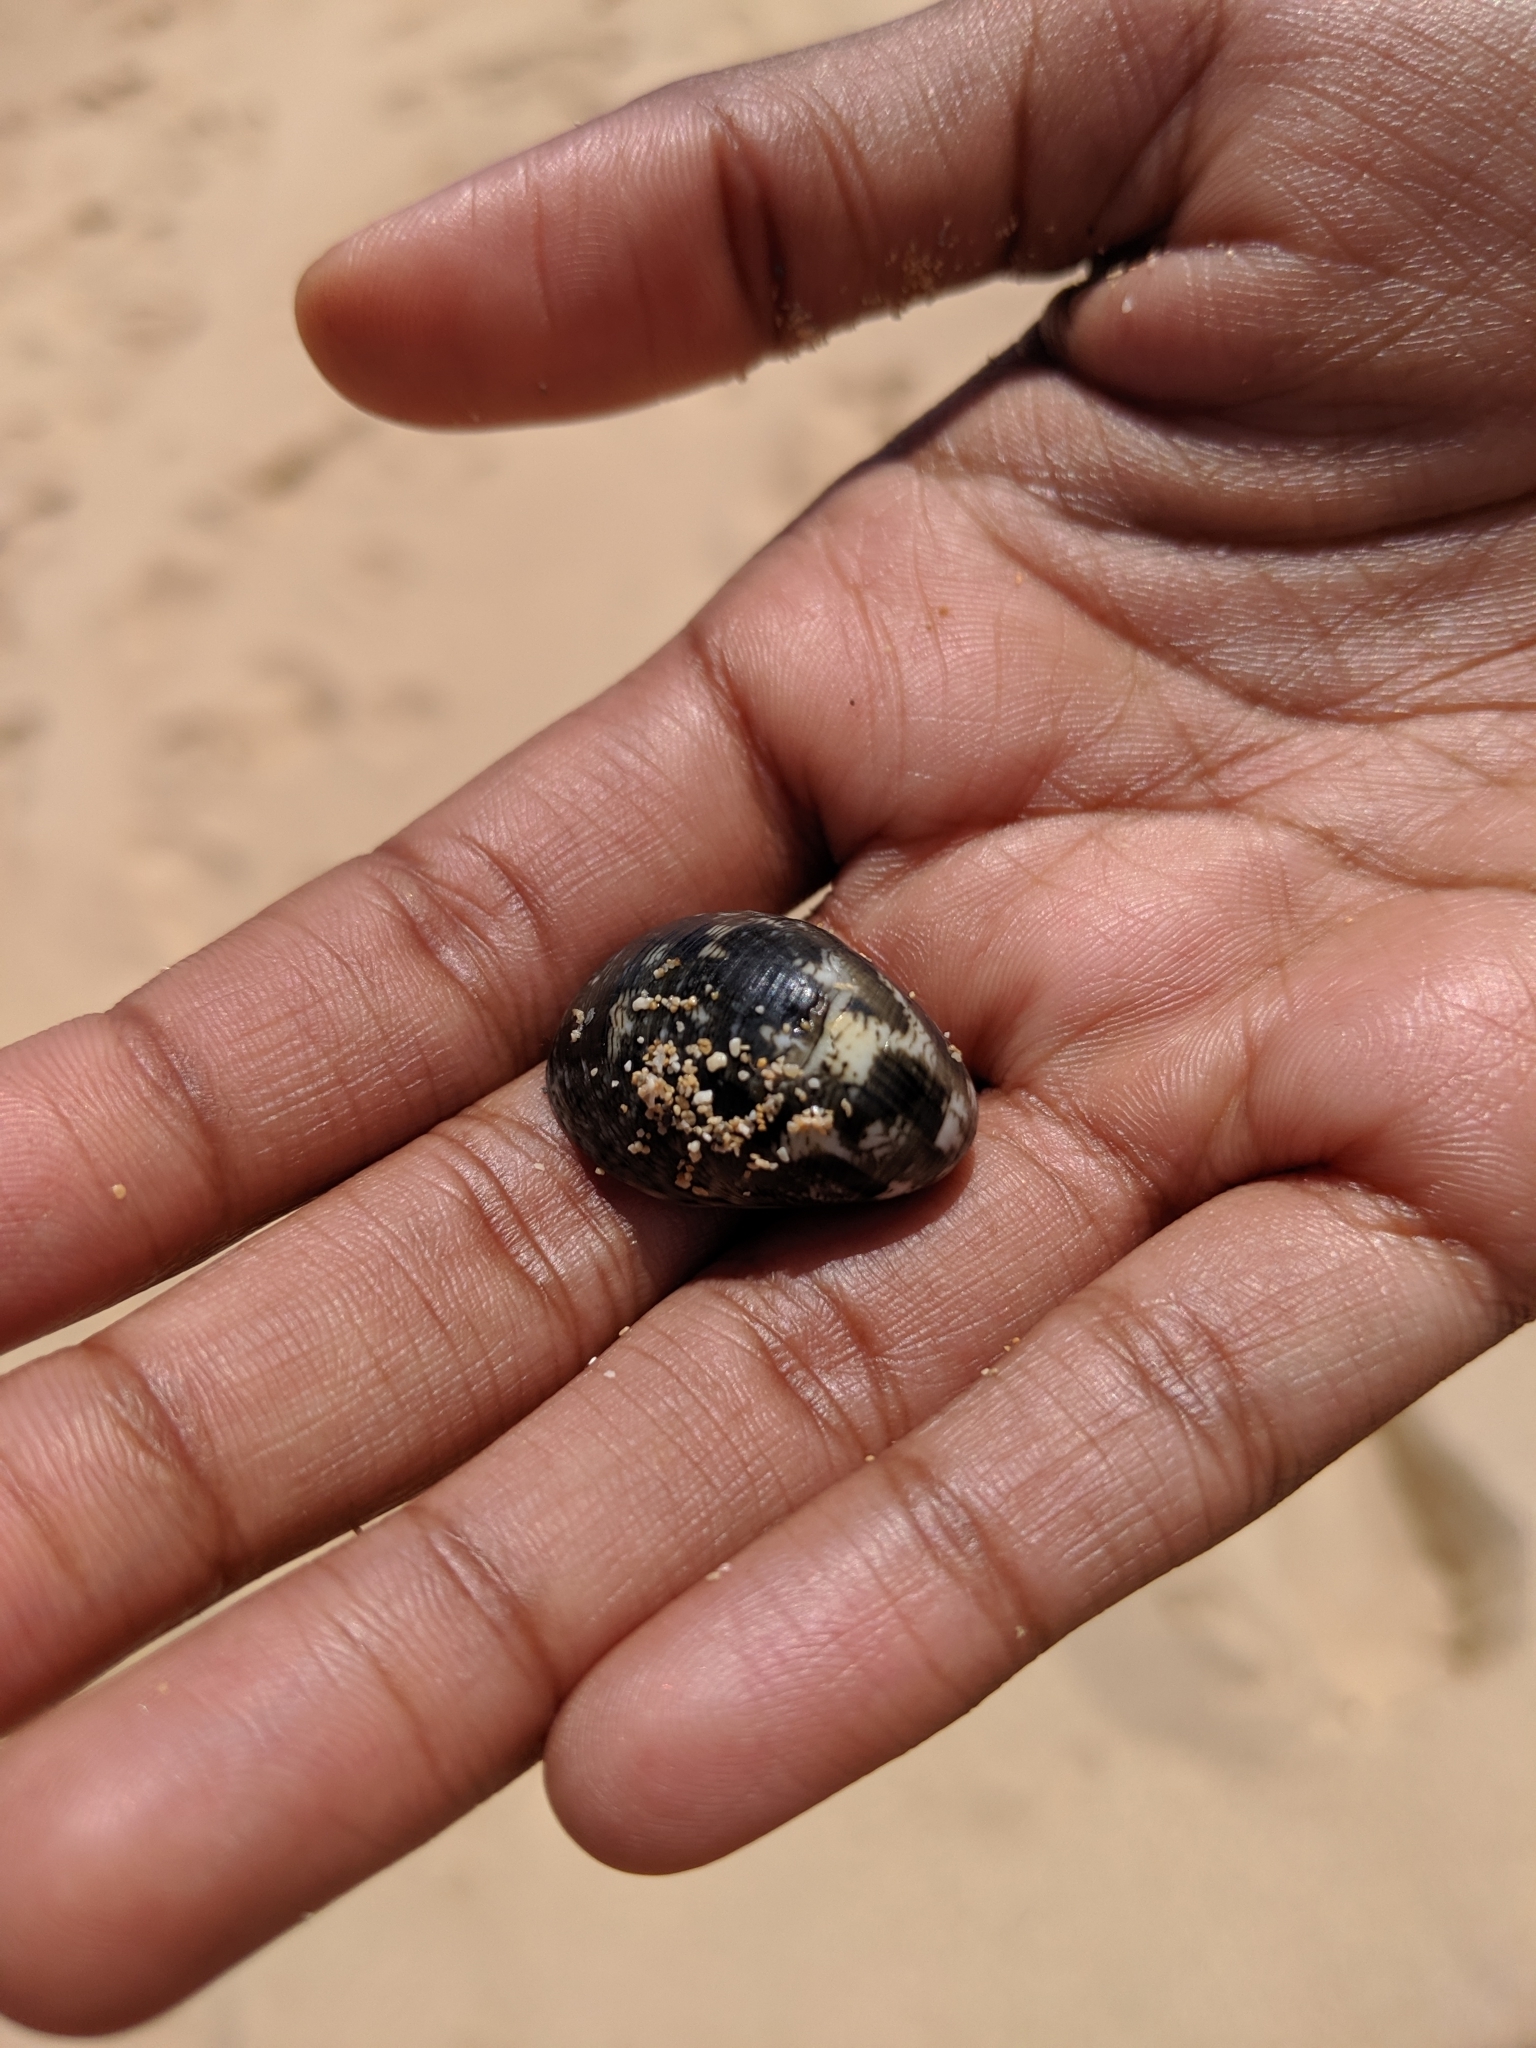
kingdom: Animalia
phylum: Mollusca
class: Gastropoda
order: Cycloneritida
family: Neritidae
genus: Nerita
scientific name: Nerita polita
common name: Polished nerite
